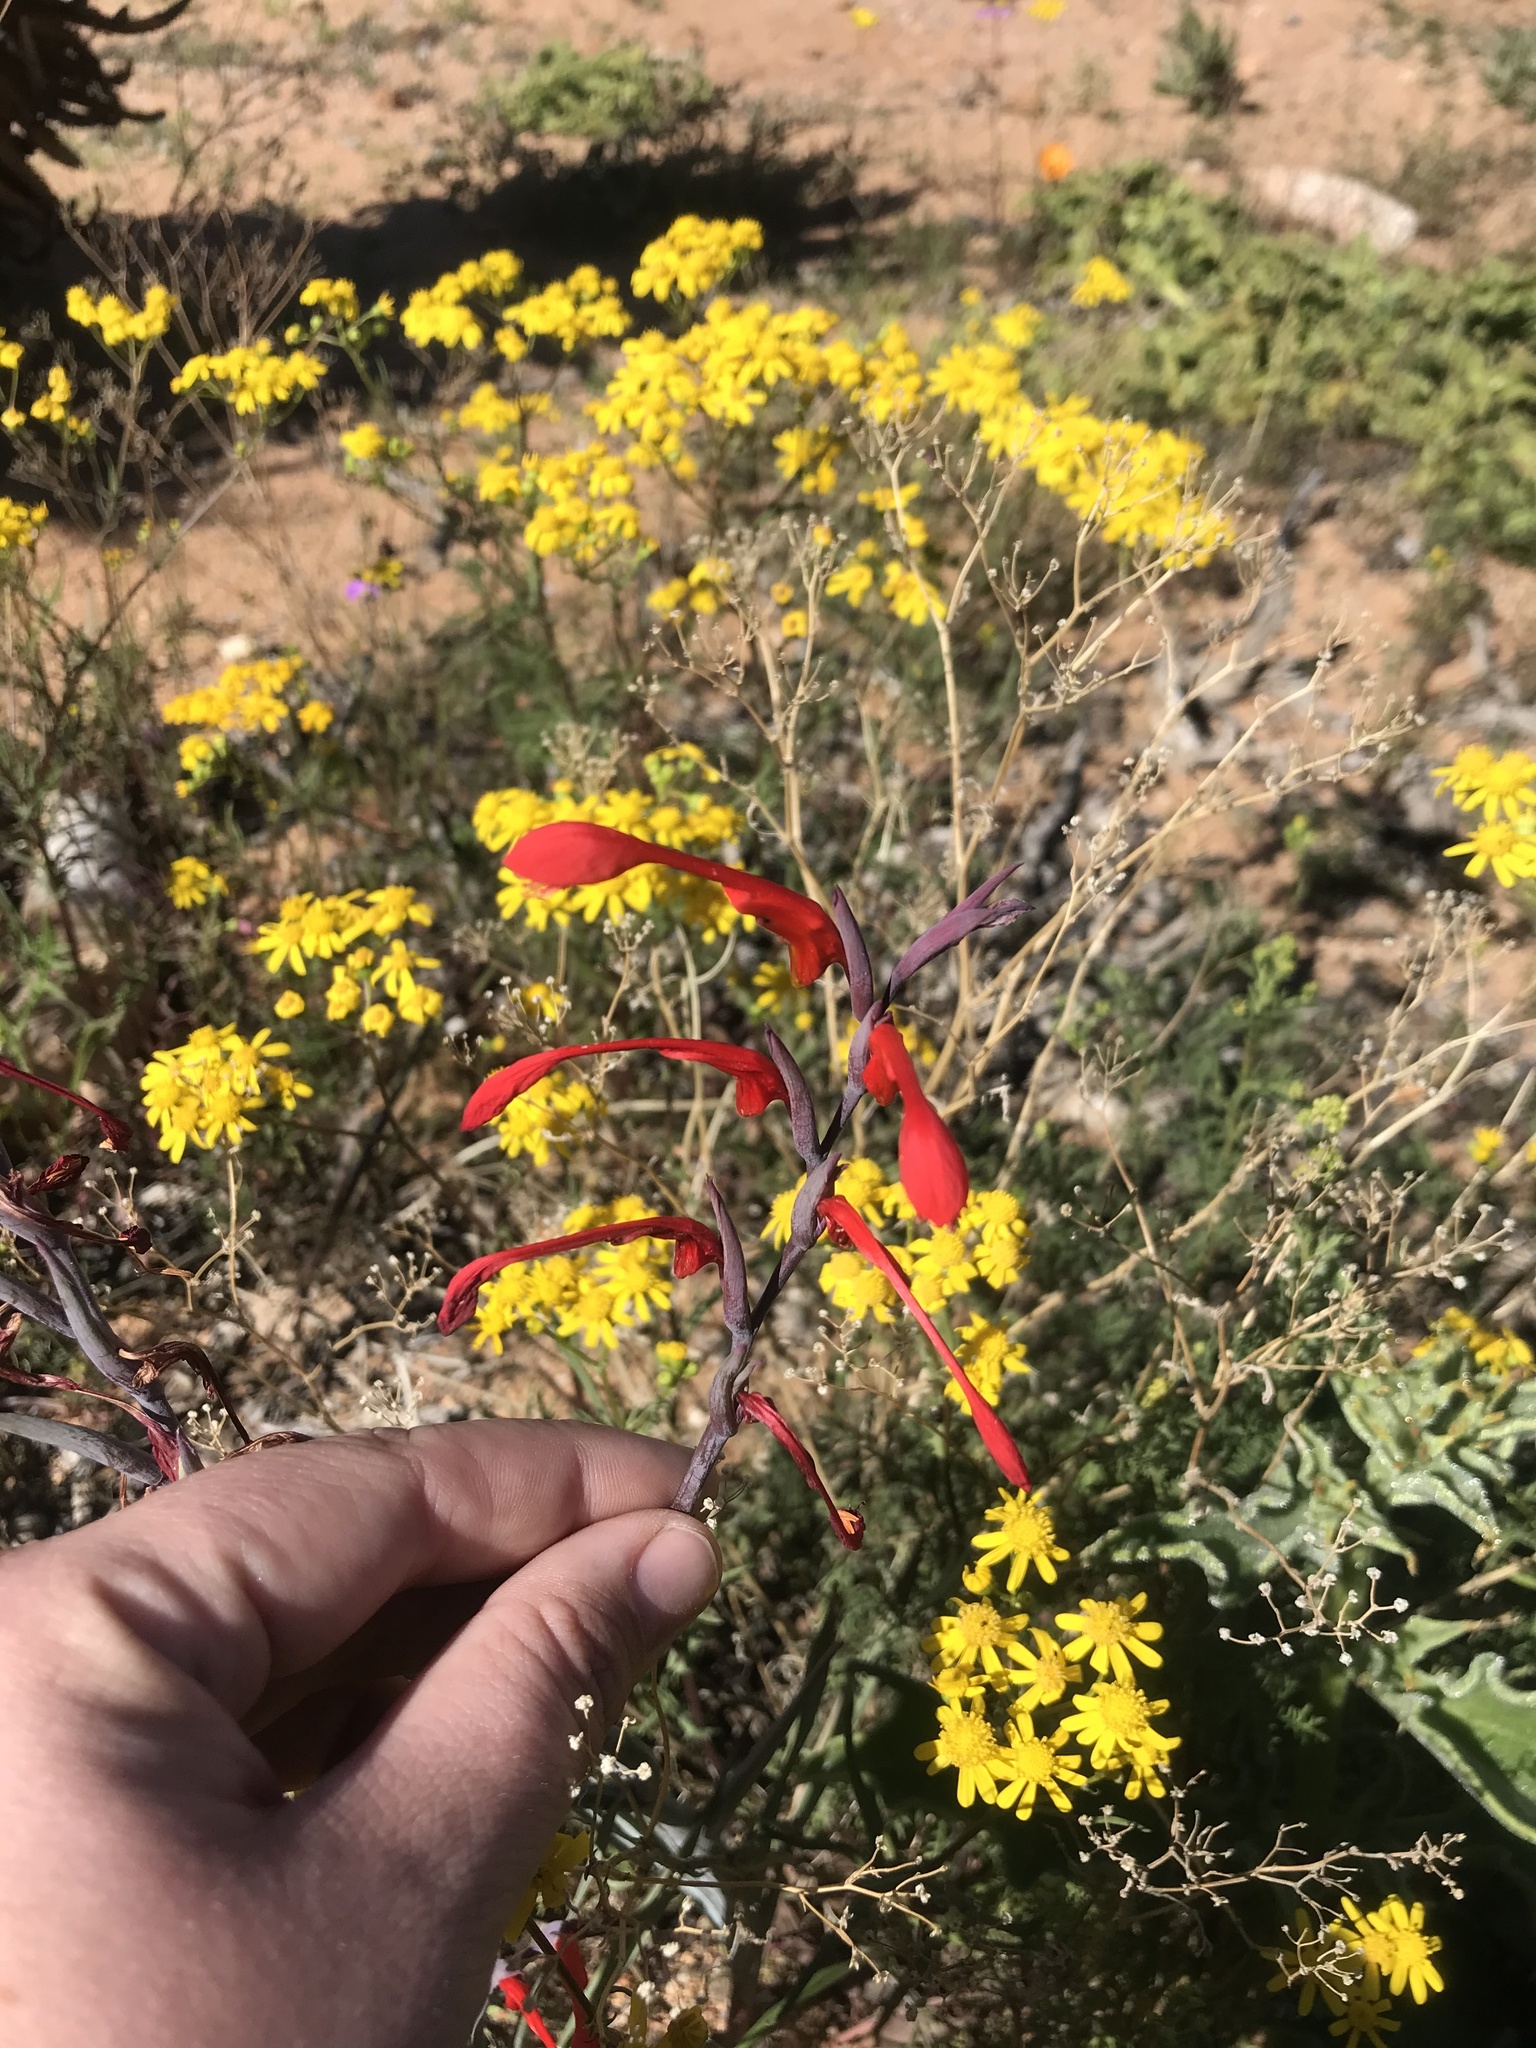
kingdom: Plantae
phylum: Tracheophyta
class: Liliopsida
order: Asparagales
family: Iridaceae
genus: Gladiolus
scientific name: Gladiolus saccatus
